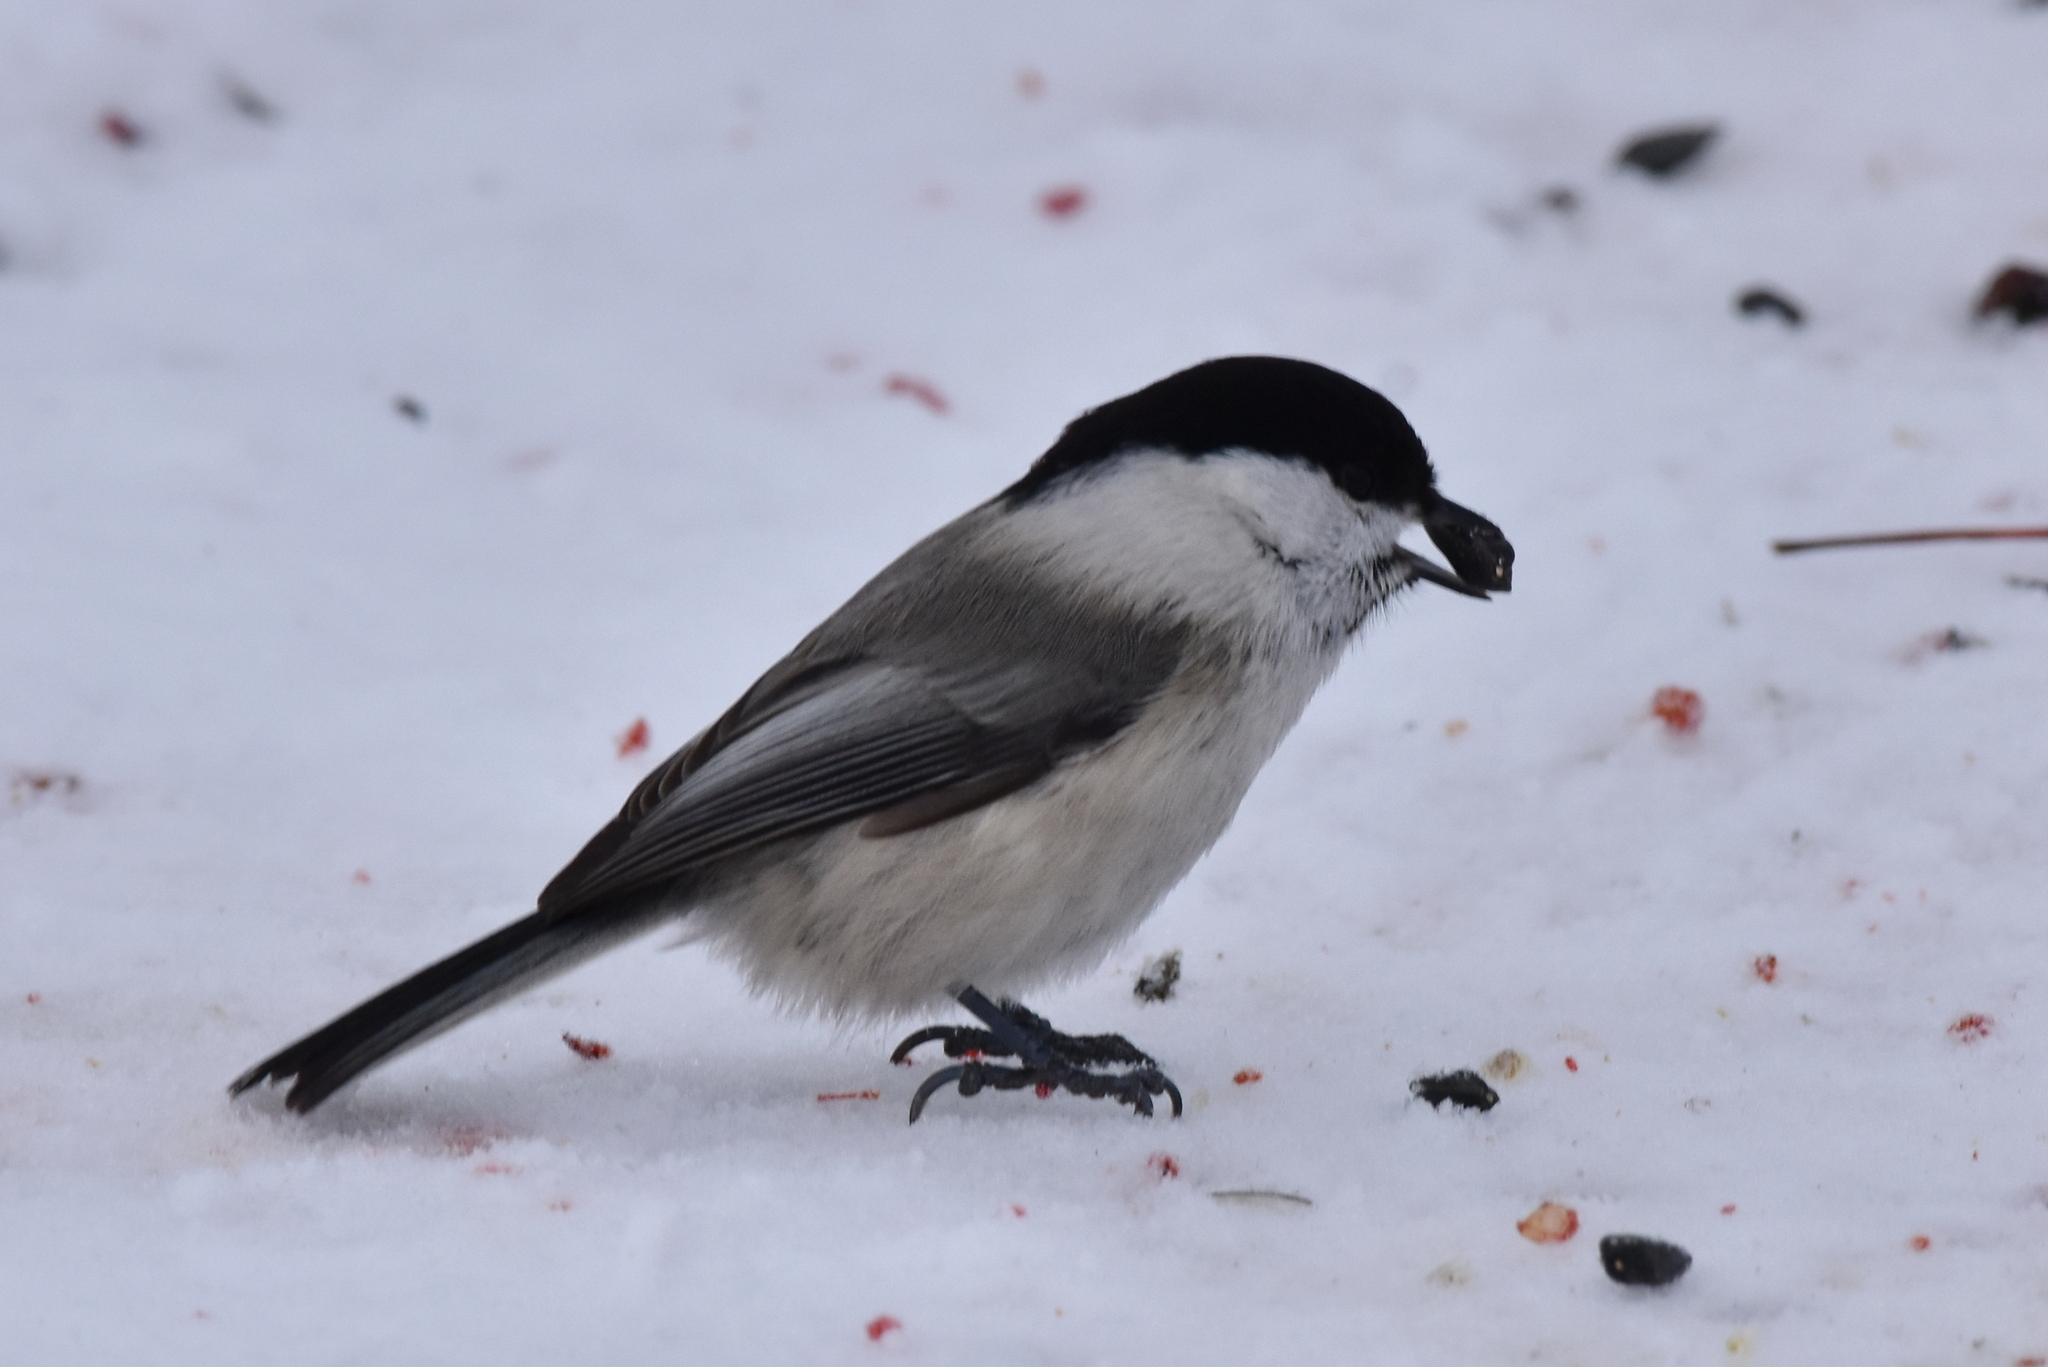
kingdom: Animalia
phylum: Chordata
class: Aves
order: Passeriformes
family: Paridae
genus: Poecile
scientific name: Poecile montanus
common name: Willow tit
